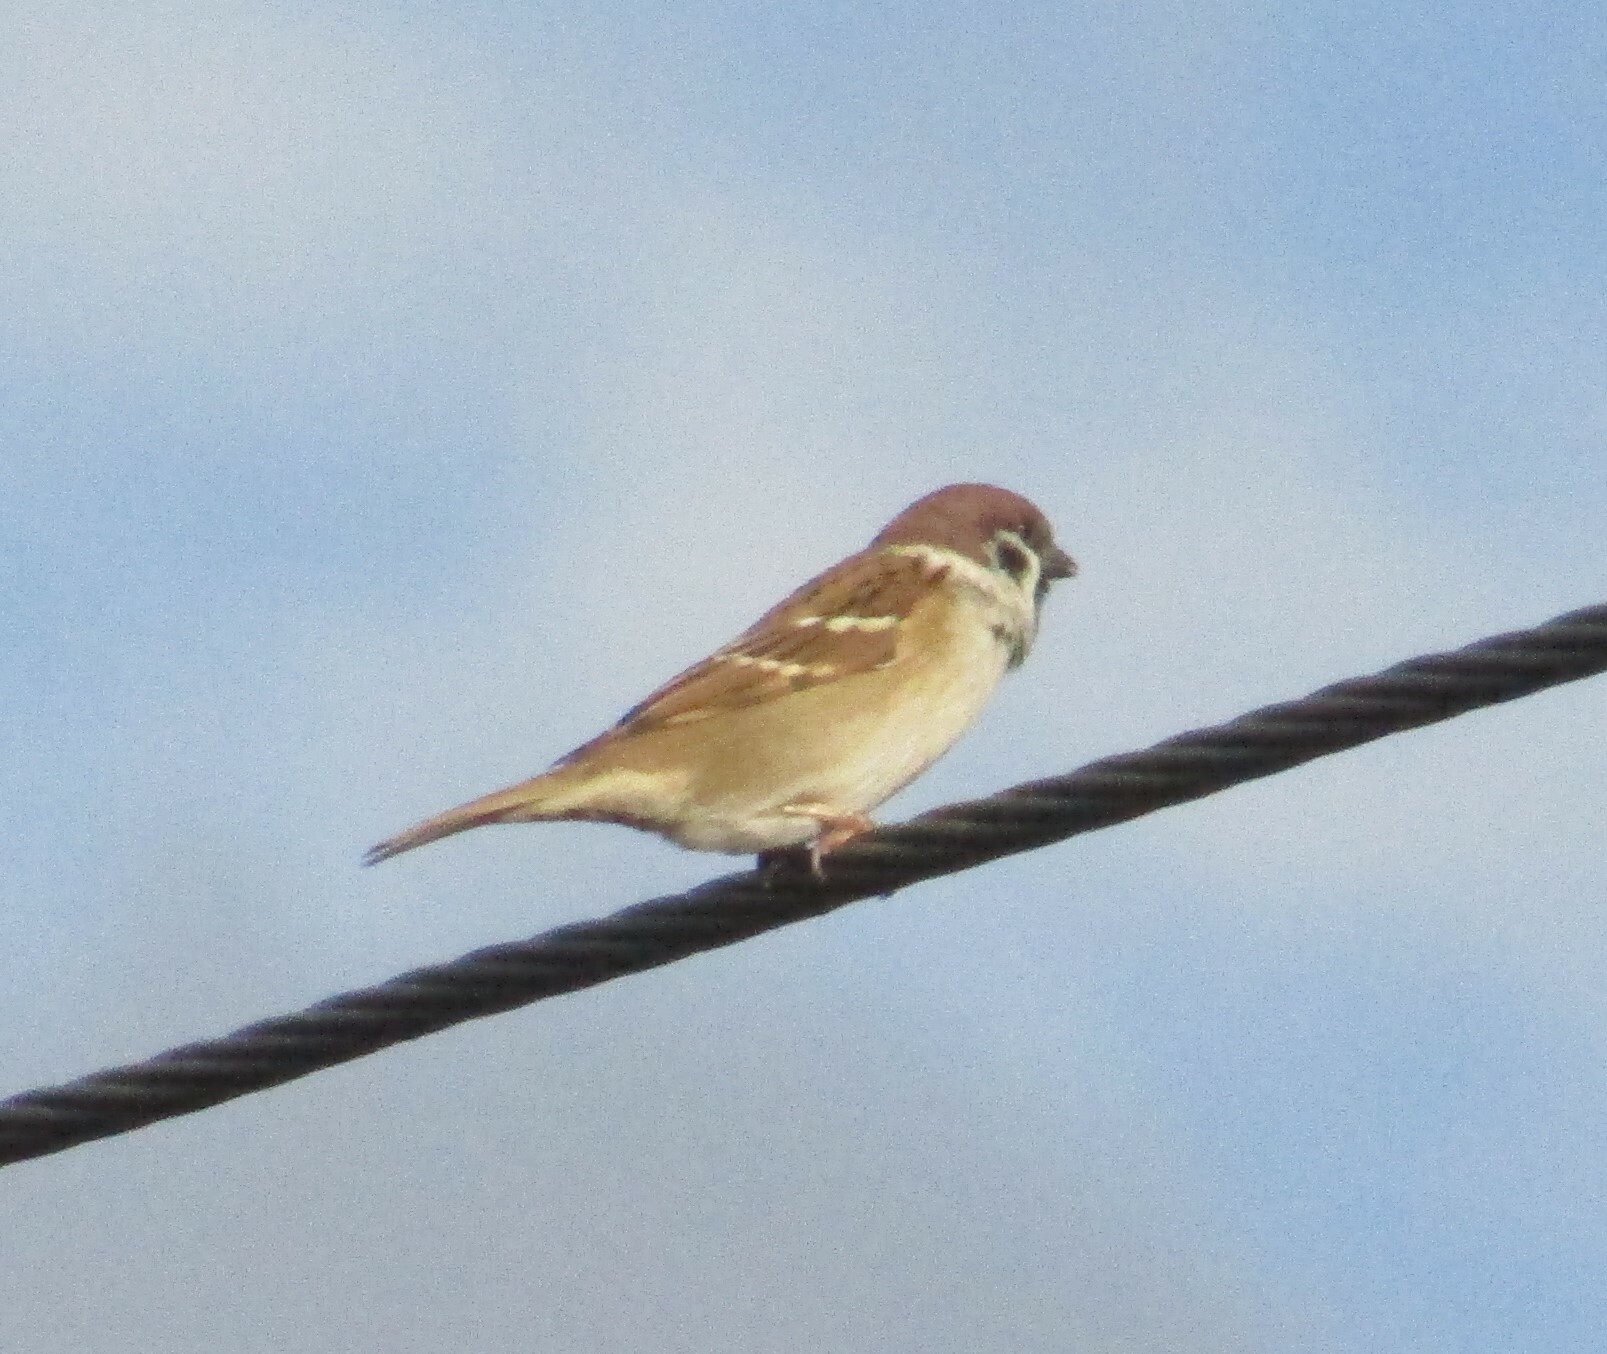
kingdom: Animalia
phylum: Chordata
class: Aves
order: Passeriformes
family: Passeridae
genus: Passer
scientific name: Passer montanus
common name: Eurasian tree sparrow
